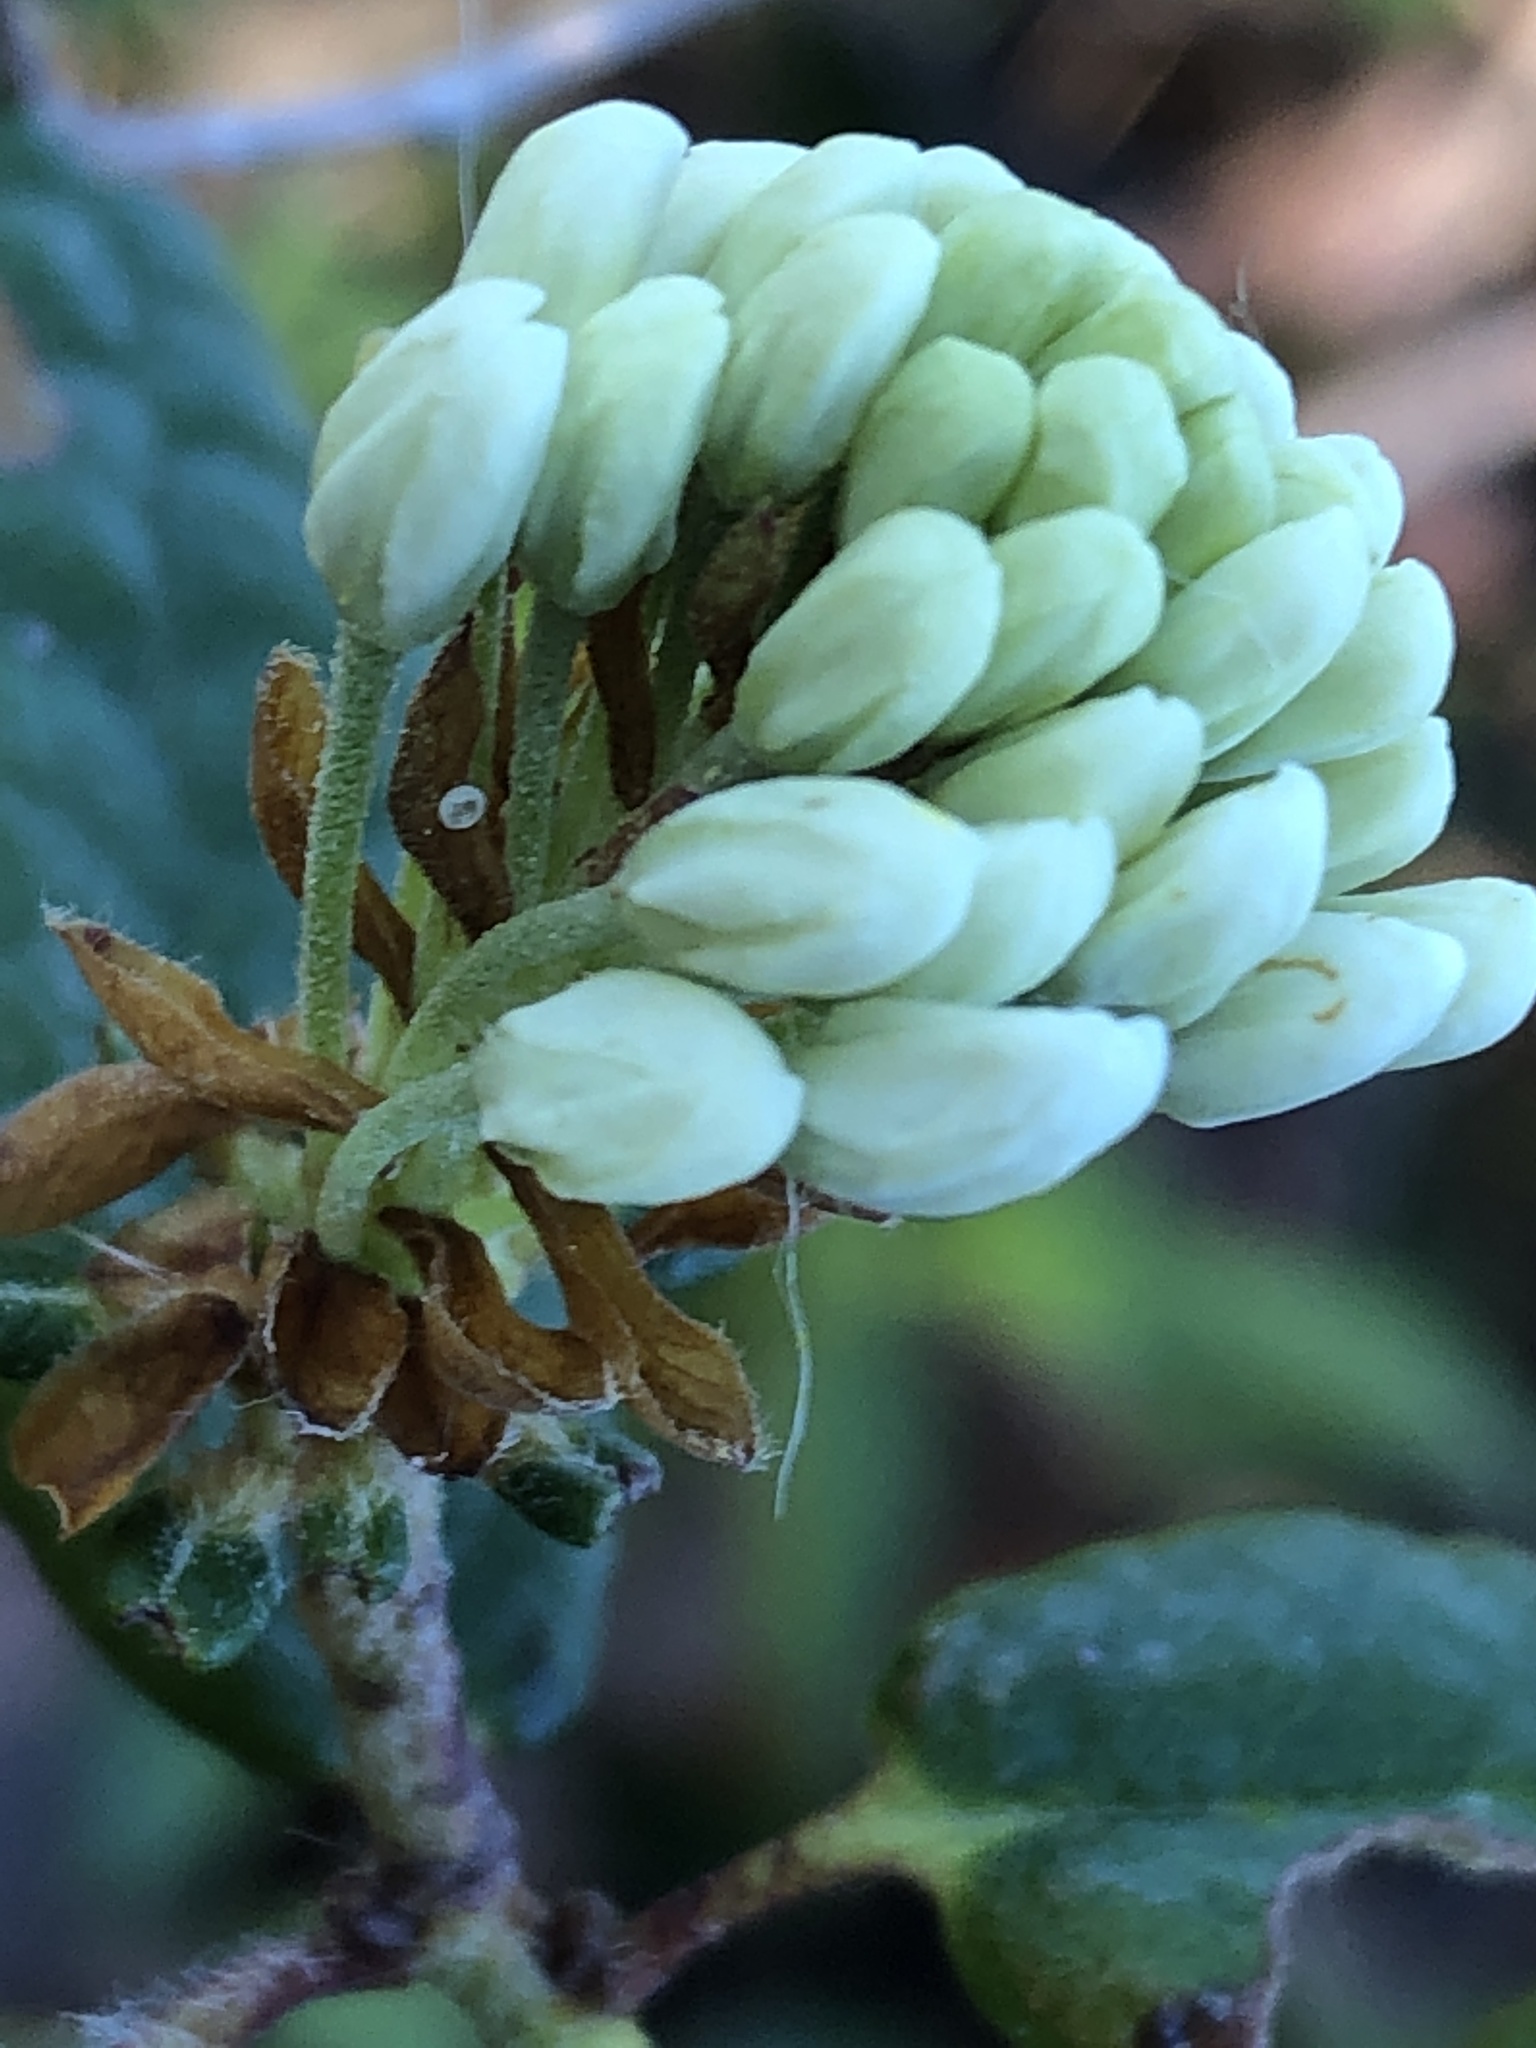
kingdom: Plantae
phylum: Tracheophyta
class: Magnoliopsida
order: Ericales
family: Ericaceae
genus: Rhododendron
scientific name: Rhododendron groenlandicum
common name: Bog labrador tea
